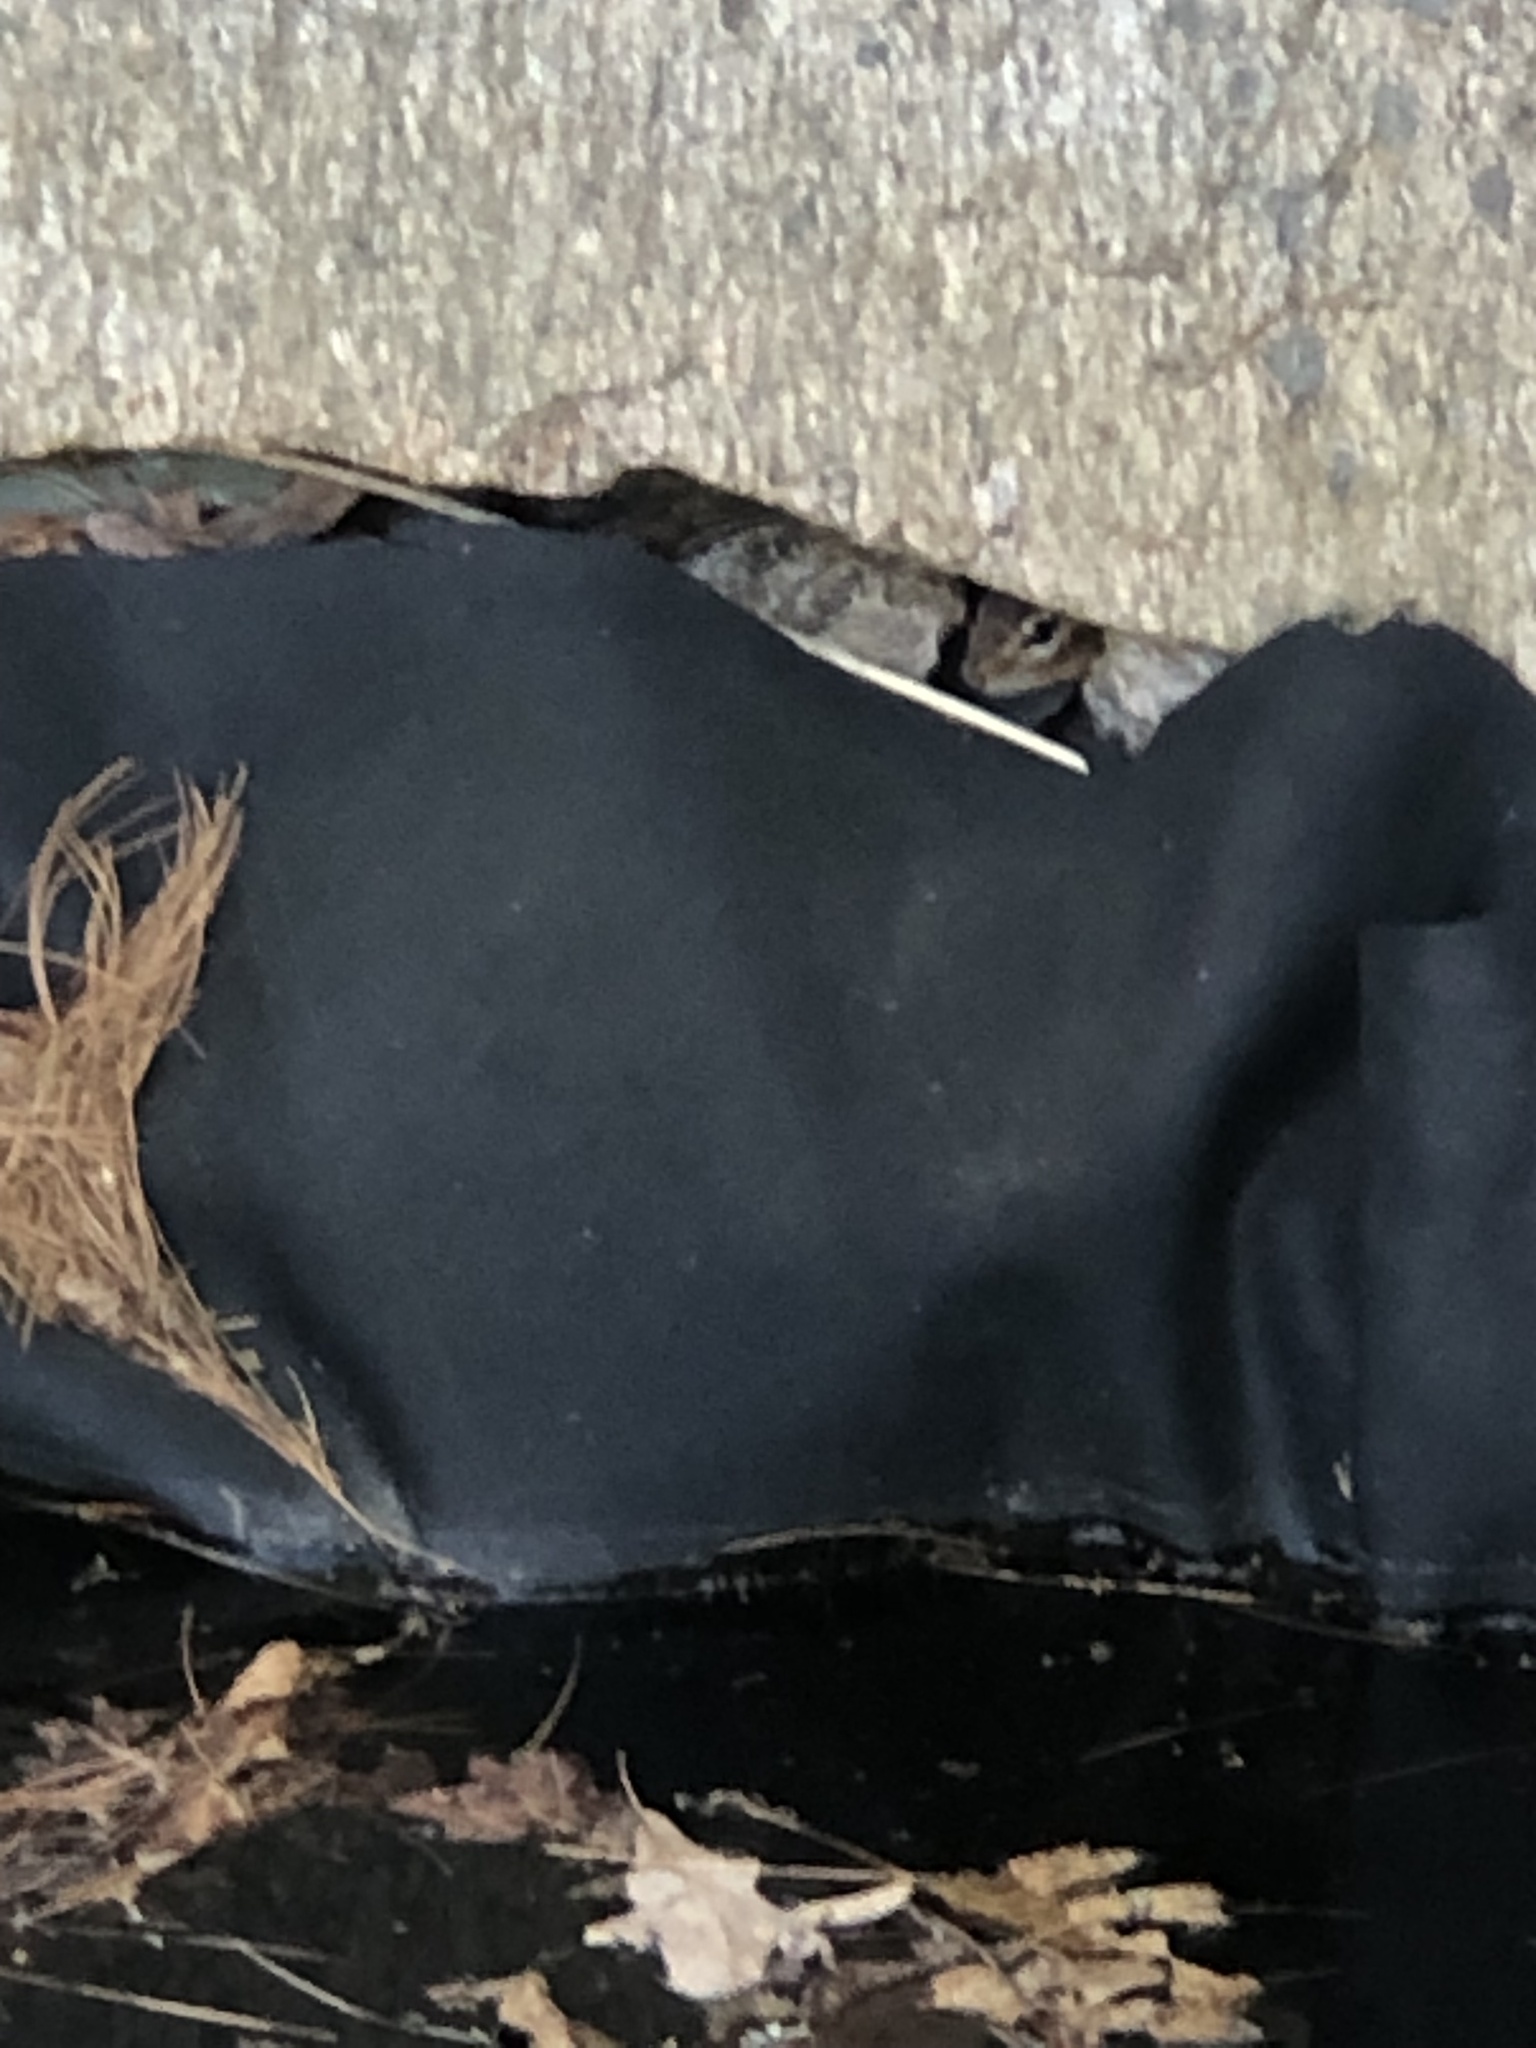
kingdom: Animalia
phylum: Chordata
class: Mammalia
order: Rodentia
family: Sciuridae
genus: Tamias
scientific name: Tamias striatus
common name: Eastern chipmunk
